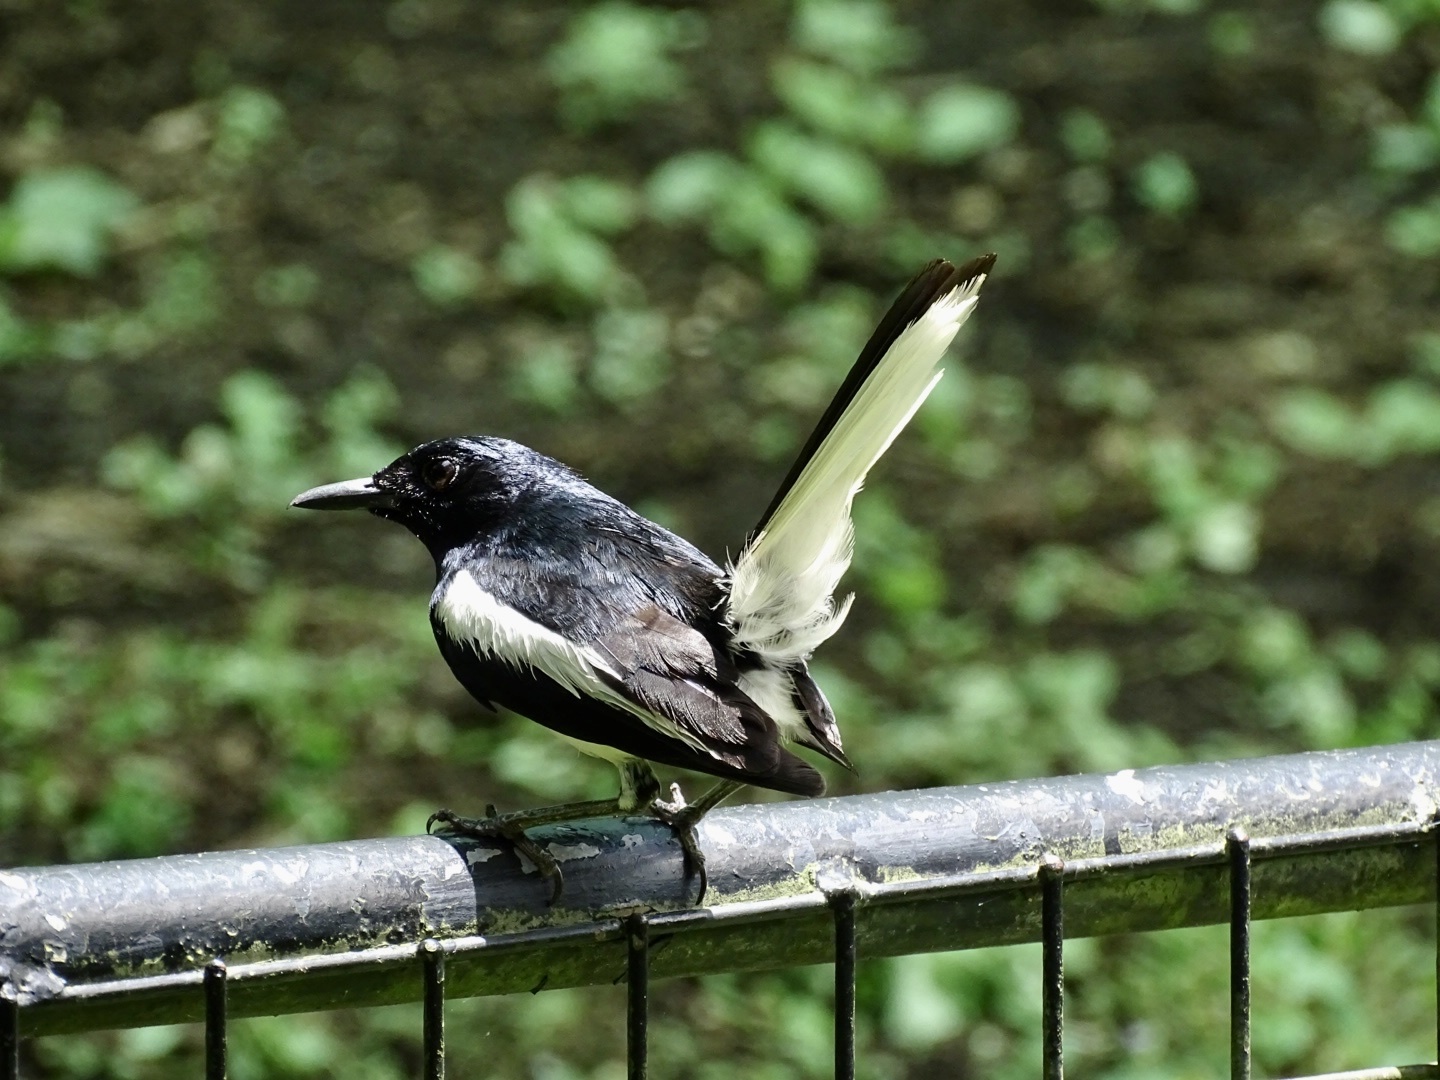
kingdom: Animalia
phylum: Chordata
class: Aves
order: Passeriformes
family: Muscicapidae
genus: Copsychus
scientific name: Copsychus saularis
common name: Oriental magpie-robin
